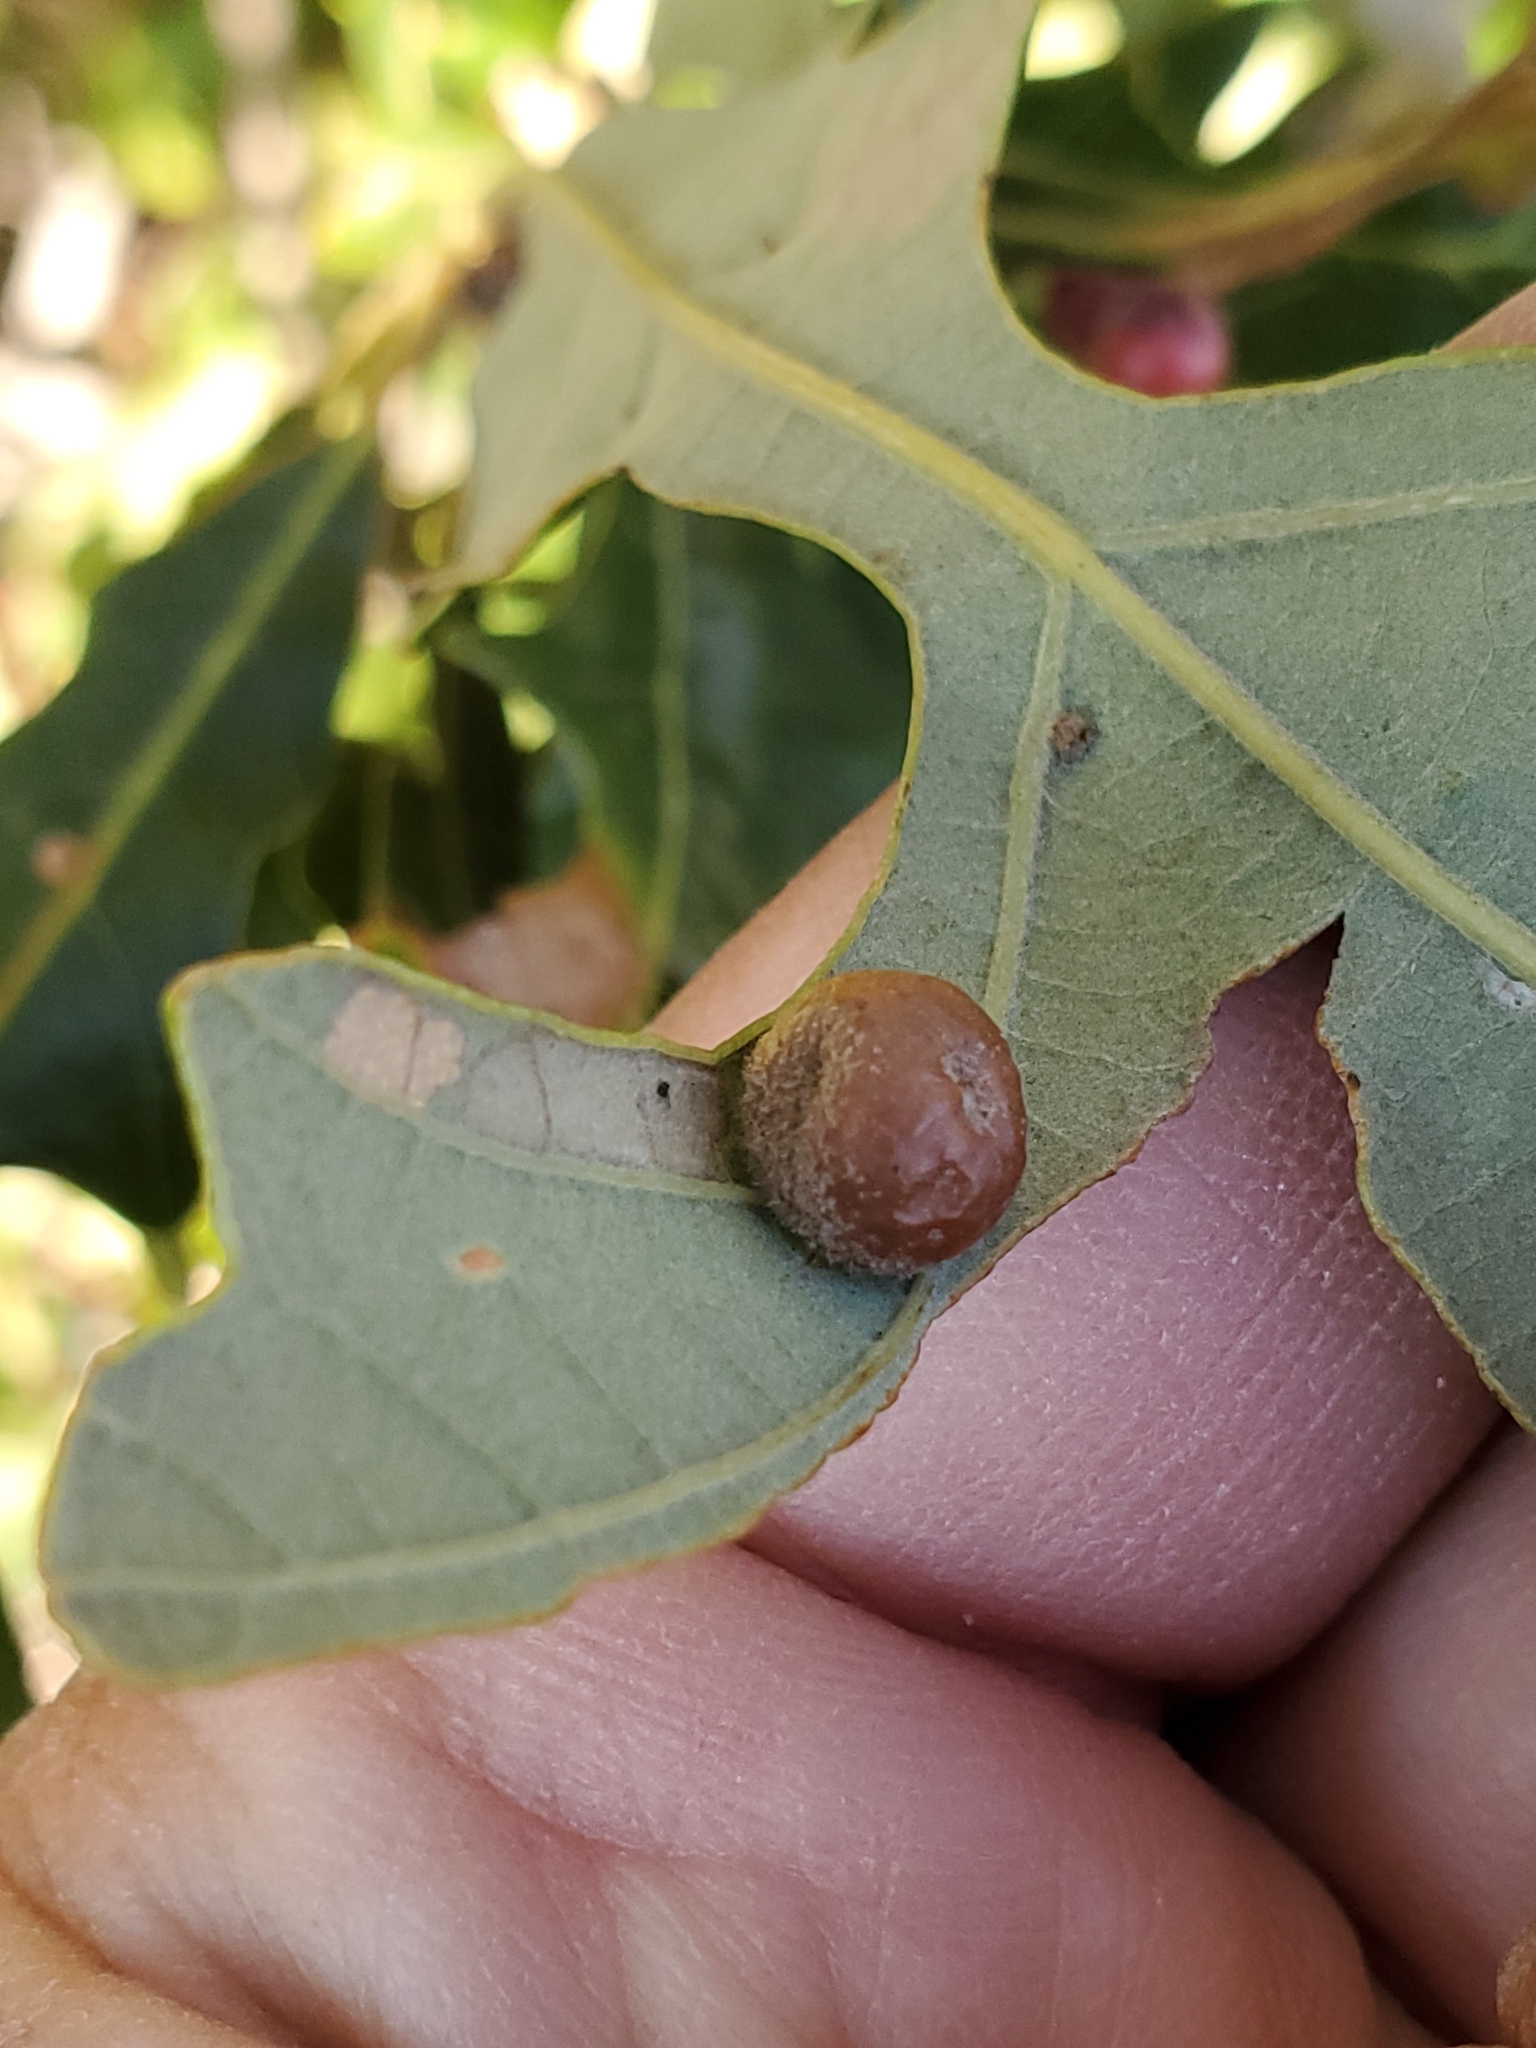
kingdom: Animalia
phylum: Arthropoda
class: Insecta
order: Hymenoptera
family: Cynipidae
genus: Philonix
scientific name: Philonix fulvicollis
